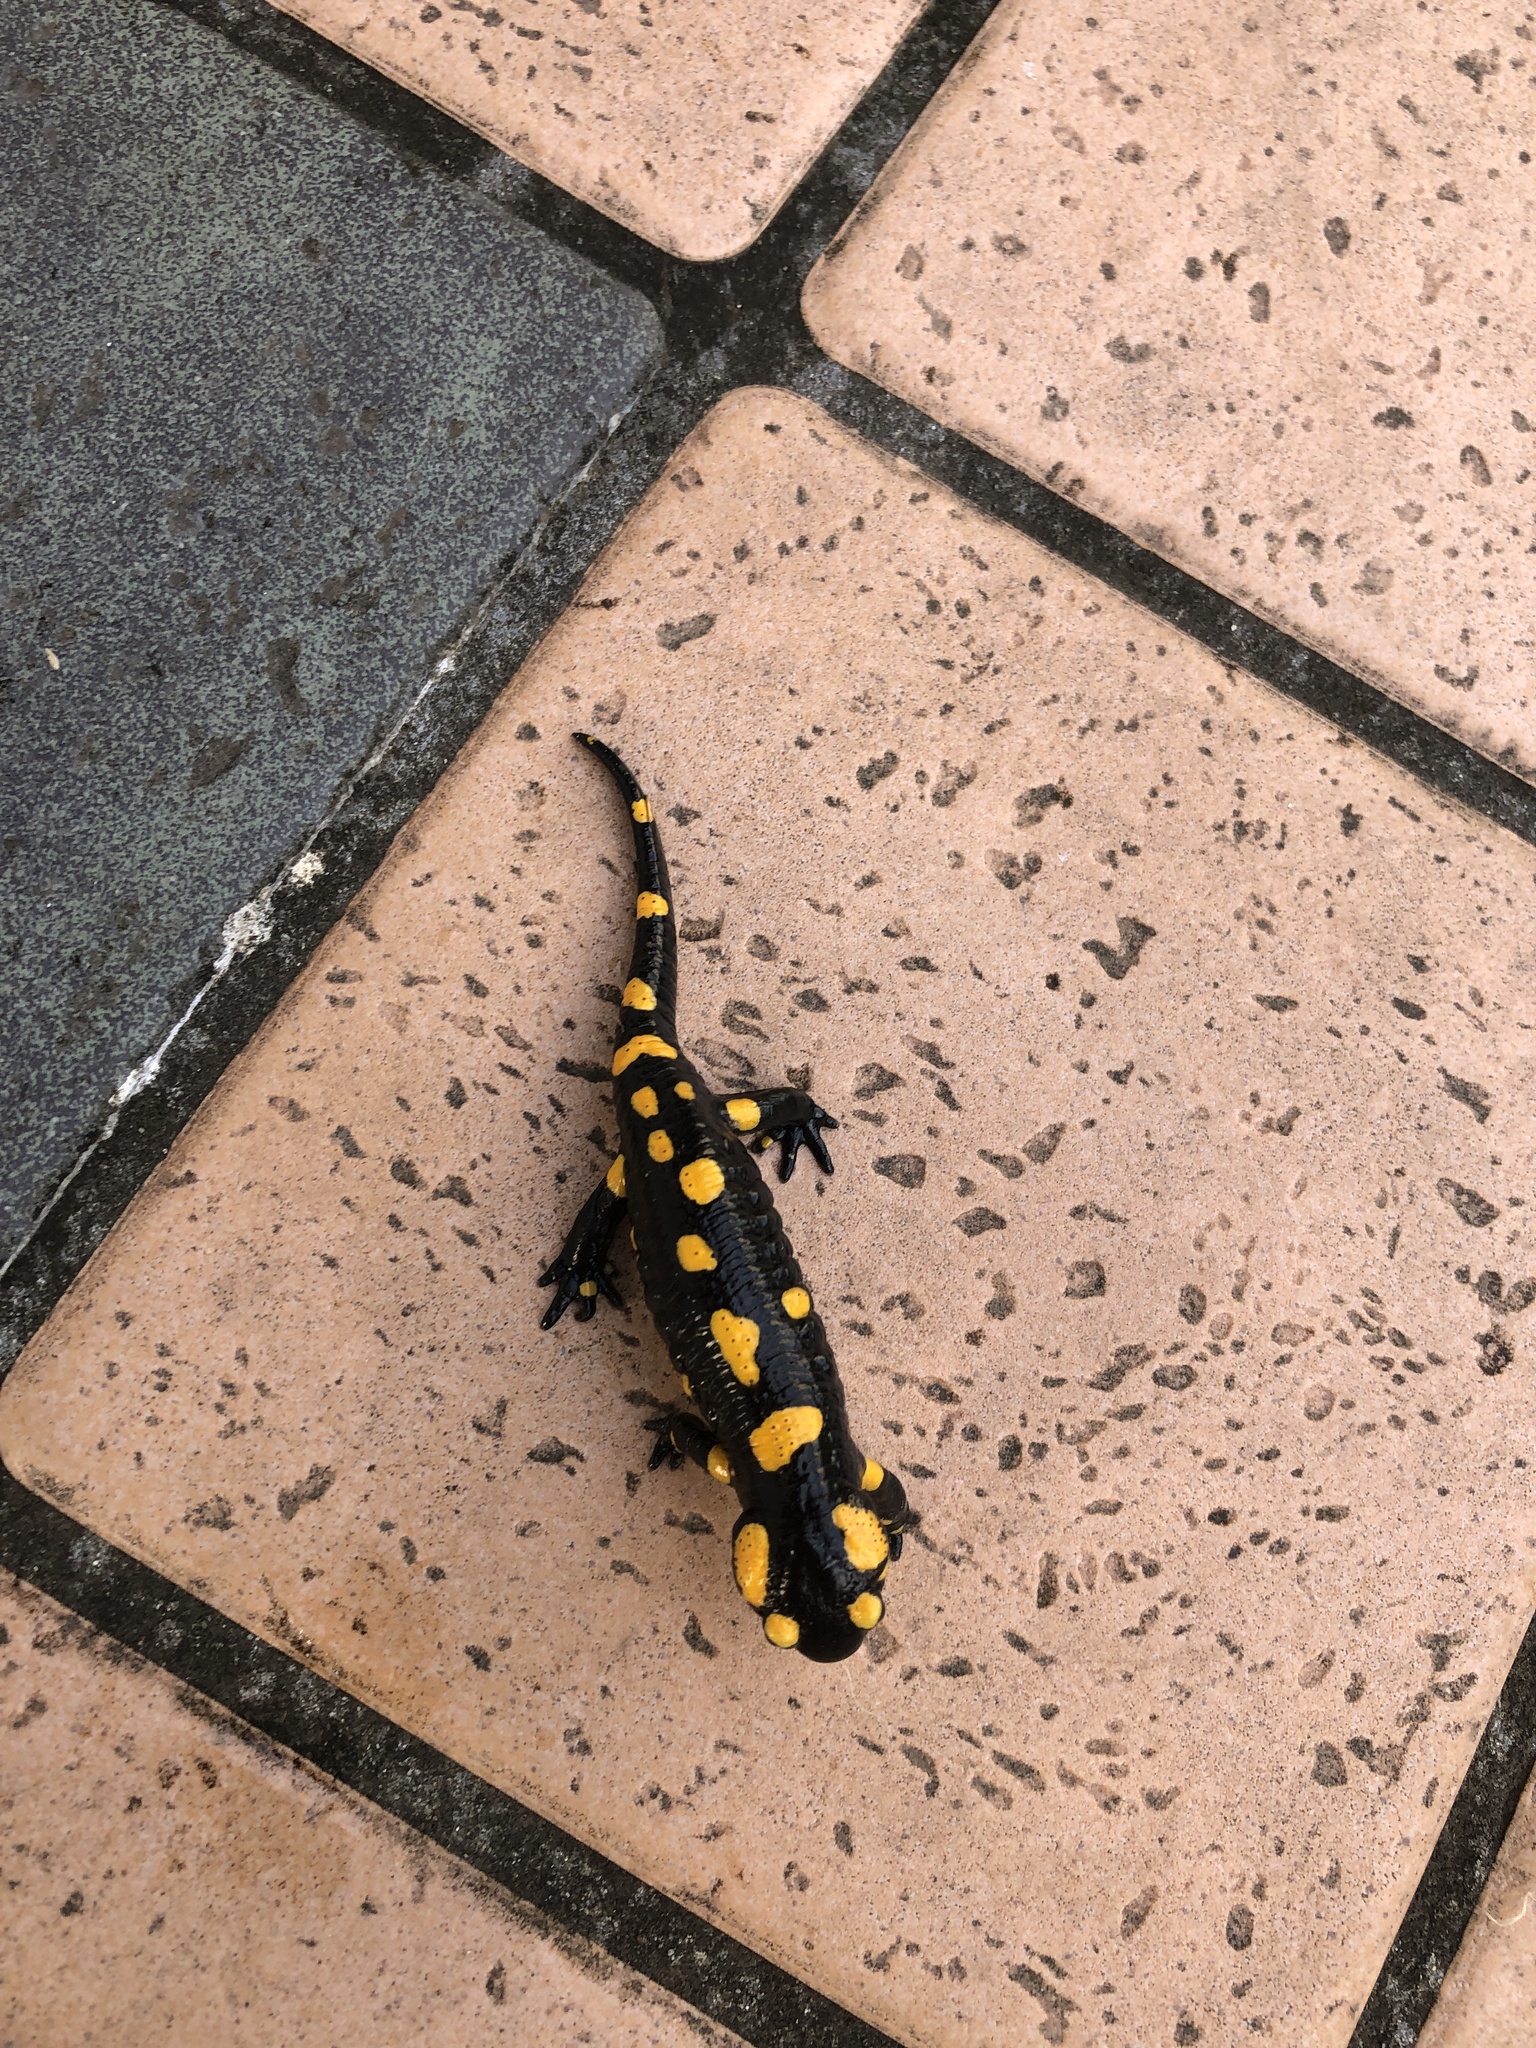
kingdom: Animalia
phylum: Chordata
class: Amphibia
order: Caudata
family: Salamandridae
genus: Salamandra
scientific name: Salamandra salamandra
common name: Fire salamander
